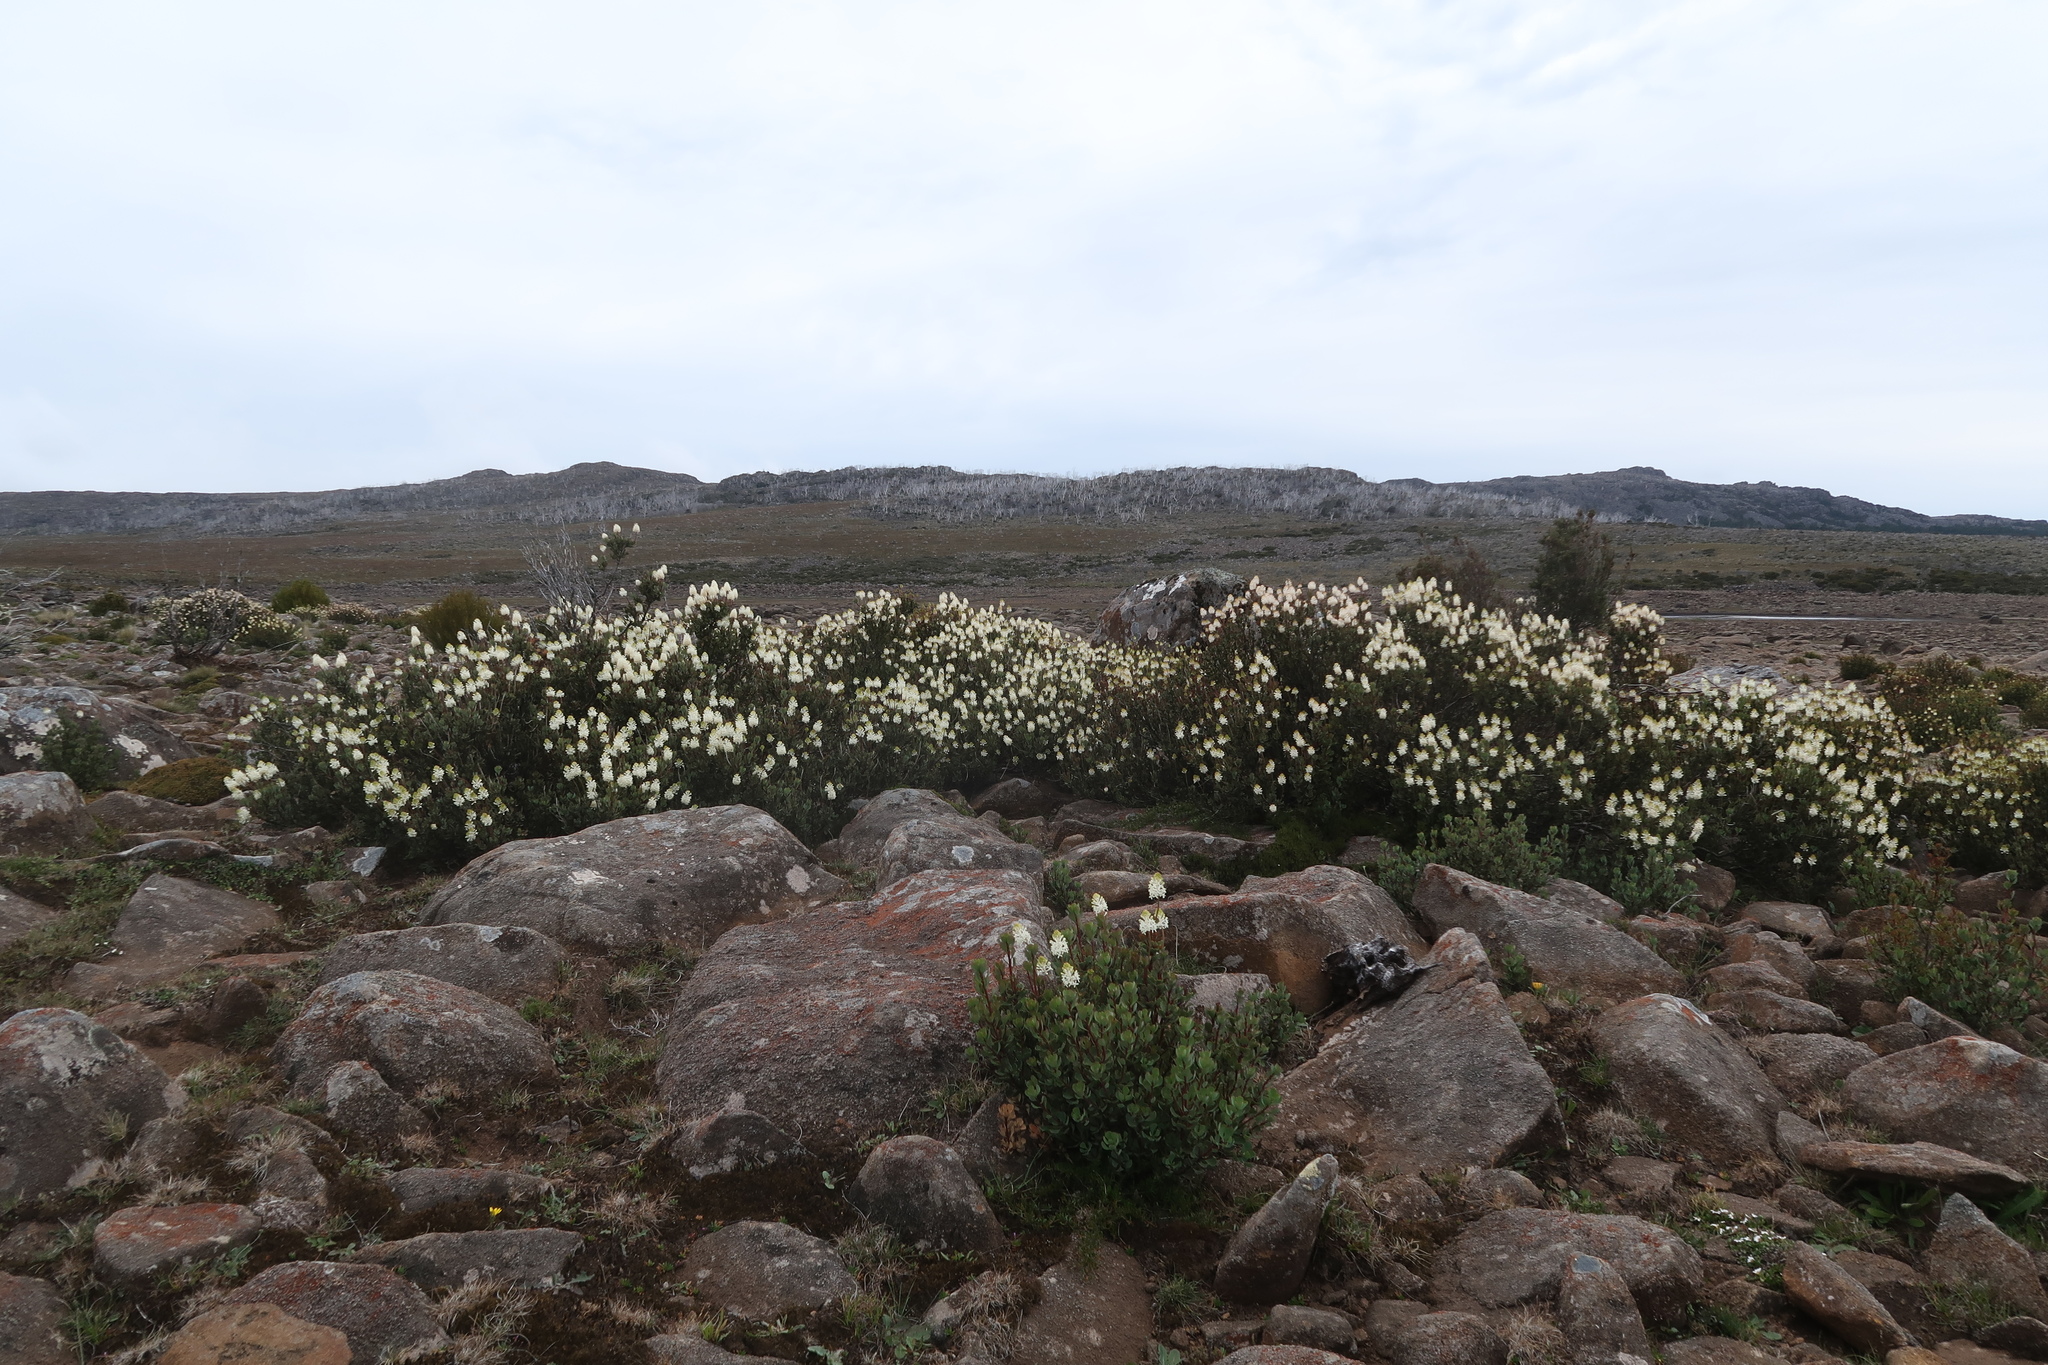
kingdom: Plantae
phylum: Tracheophyta
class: Magnoliopsida
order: Proteales
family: Proteaceae
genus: Bellendena
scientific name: Bellendena montana
